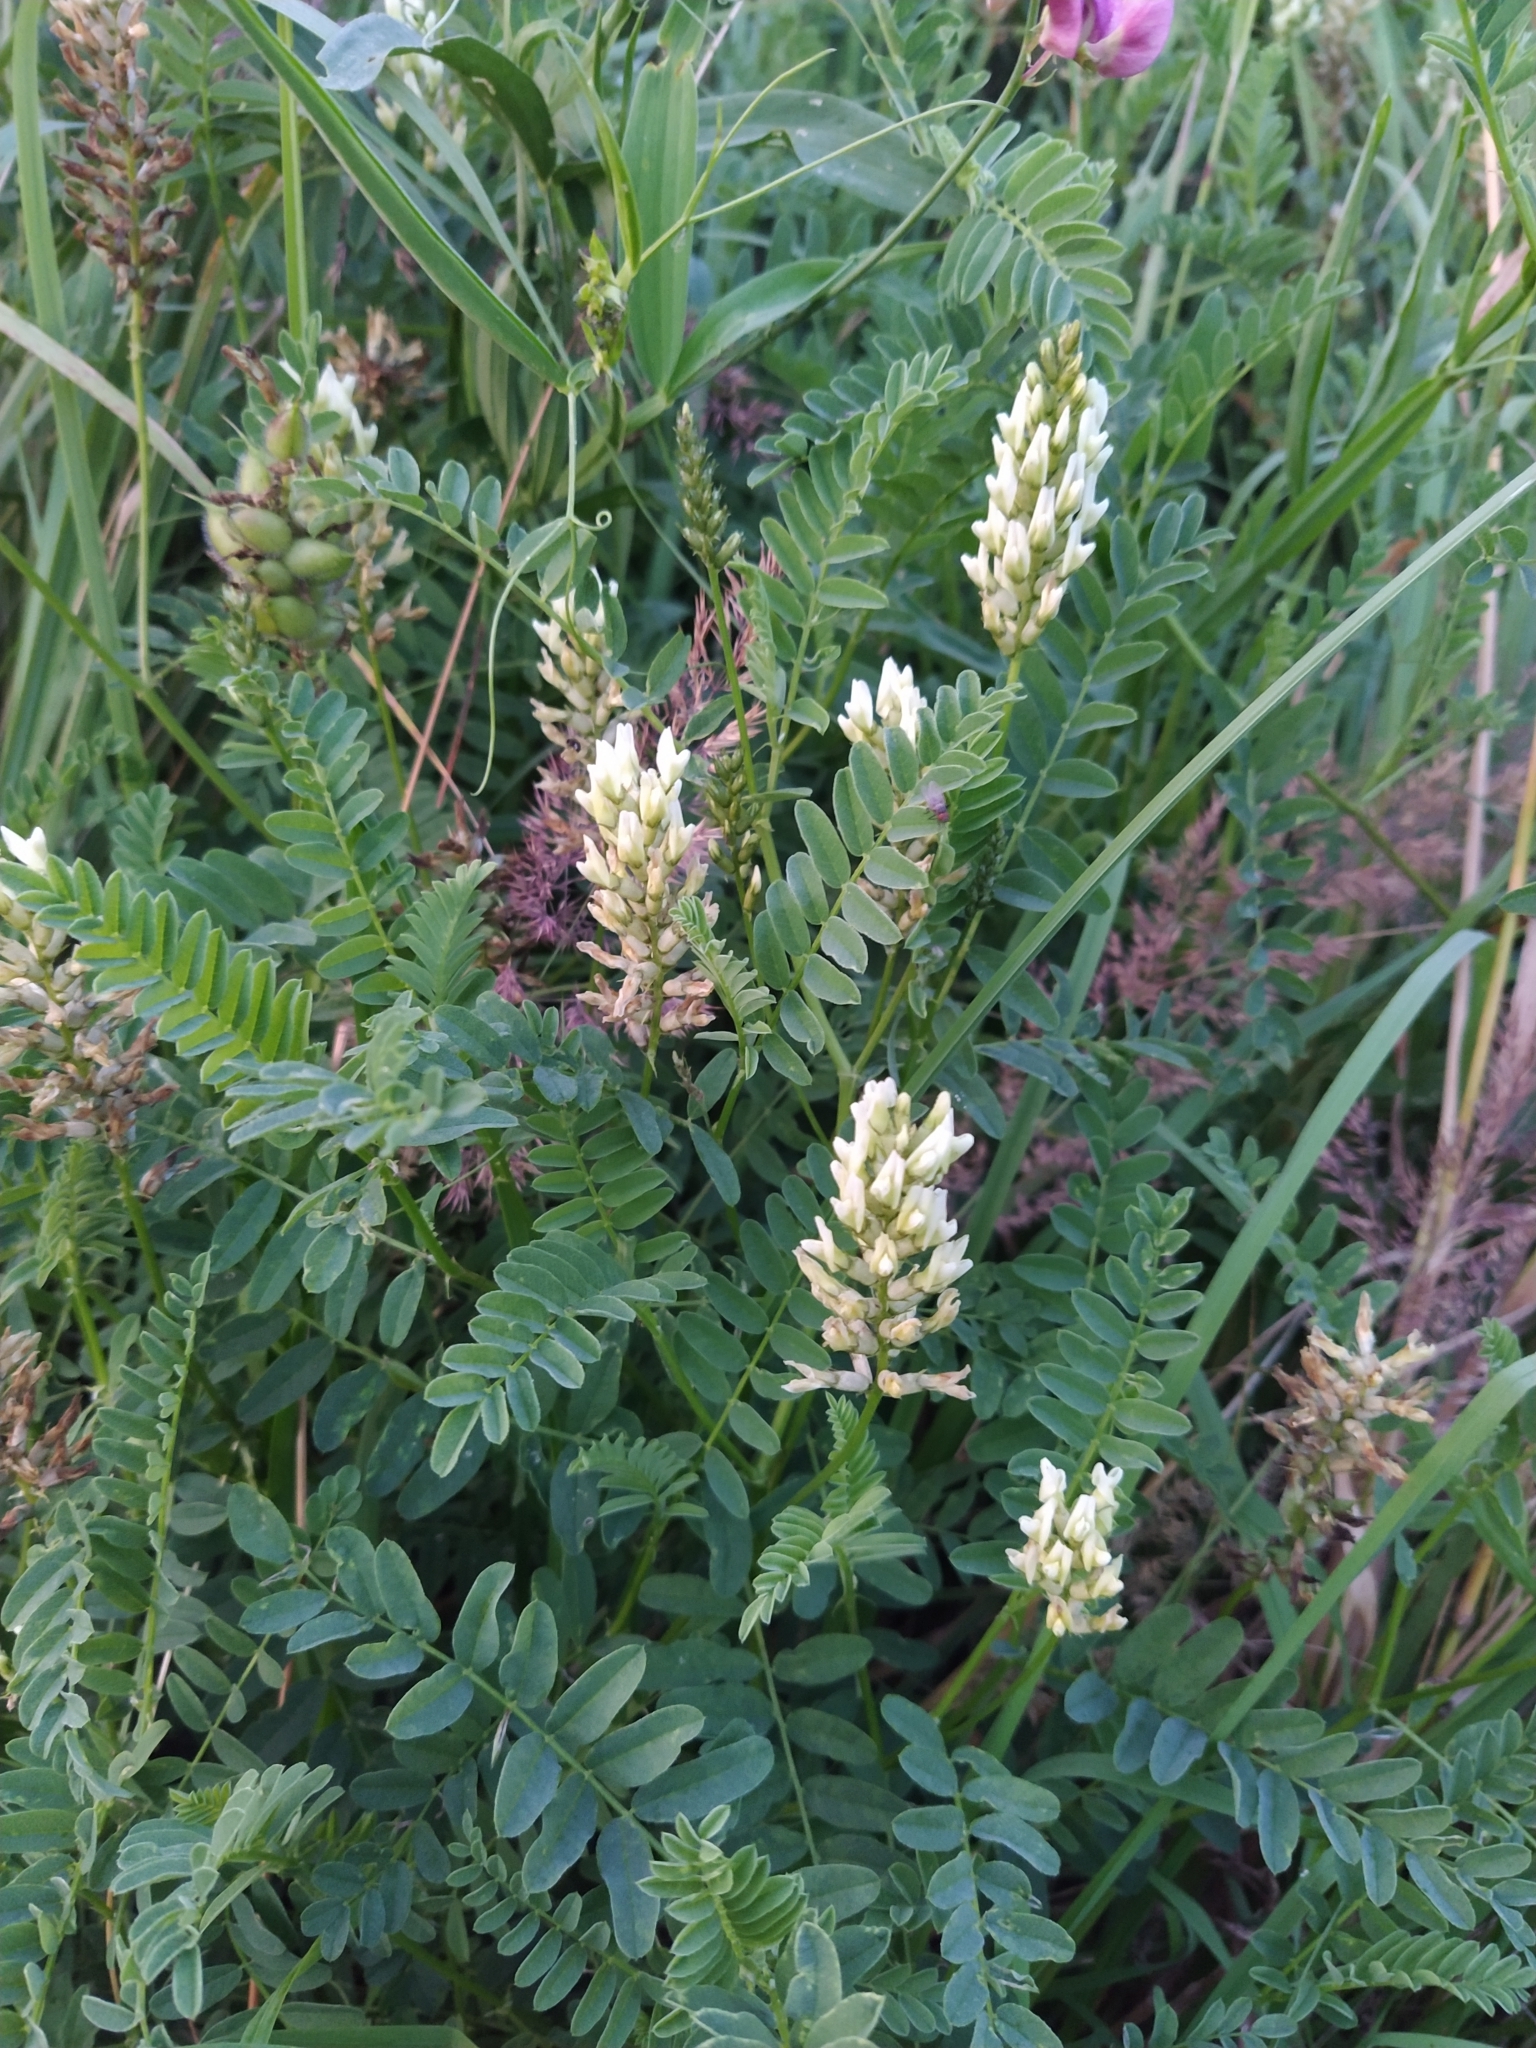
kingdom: Plantae
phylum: Tracheophyta
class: Magnoliopsida
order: Fabales
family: Fabaceae
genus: Astragalus
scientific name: Astragalus cicer
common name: Chick-pea milk-vetch
